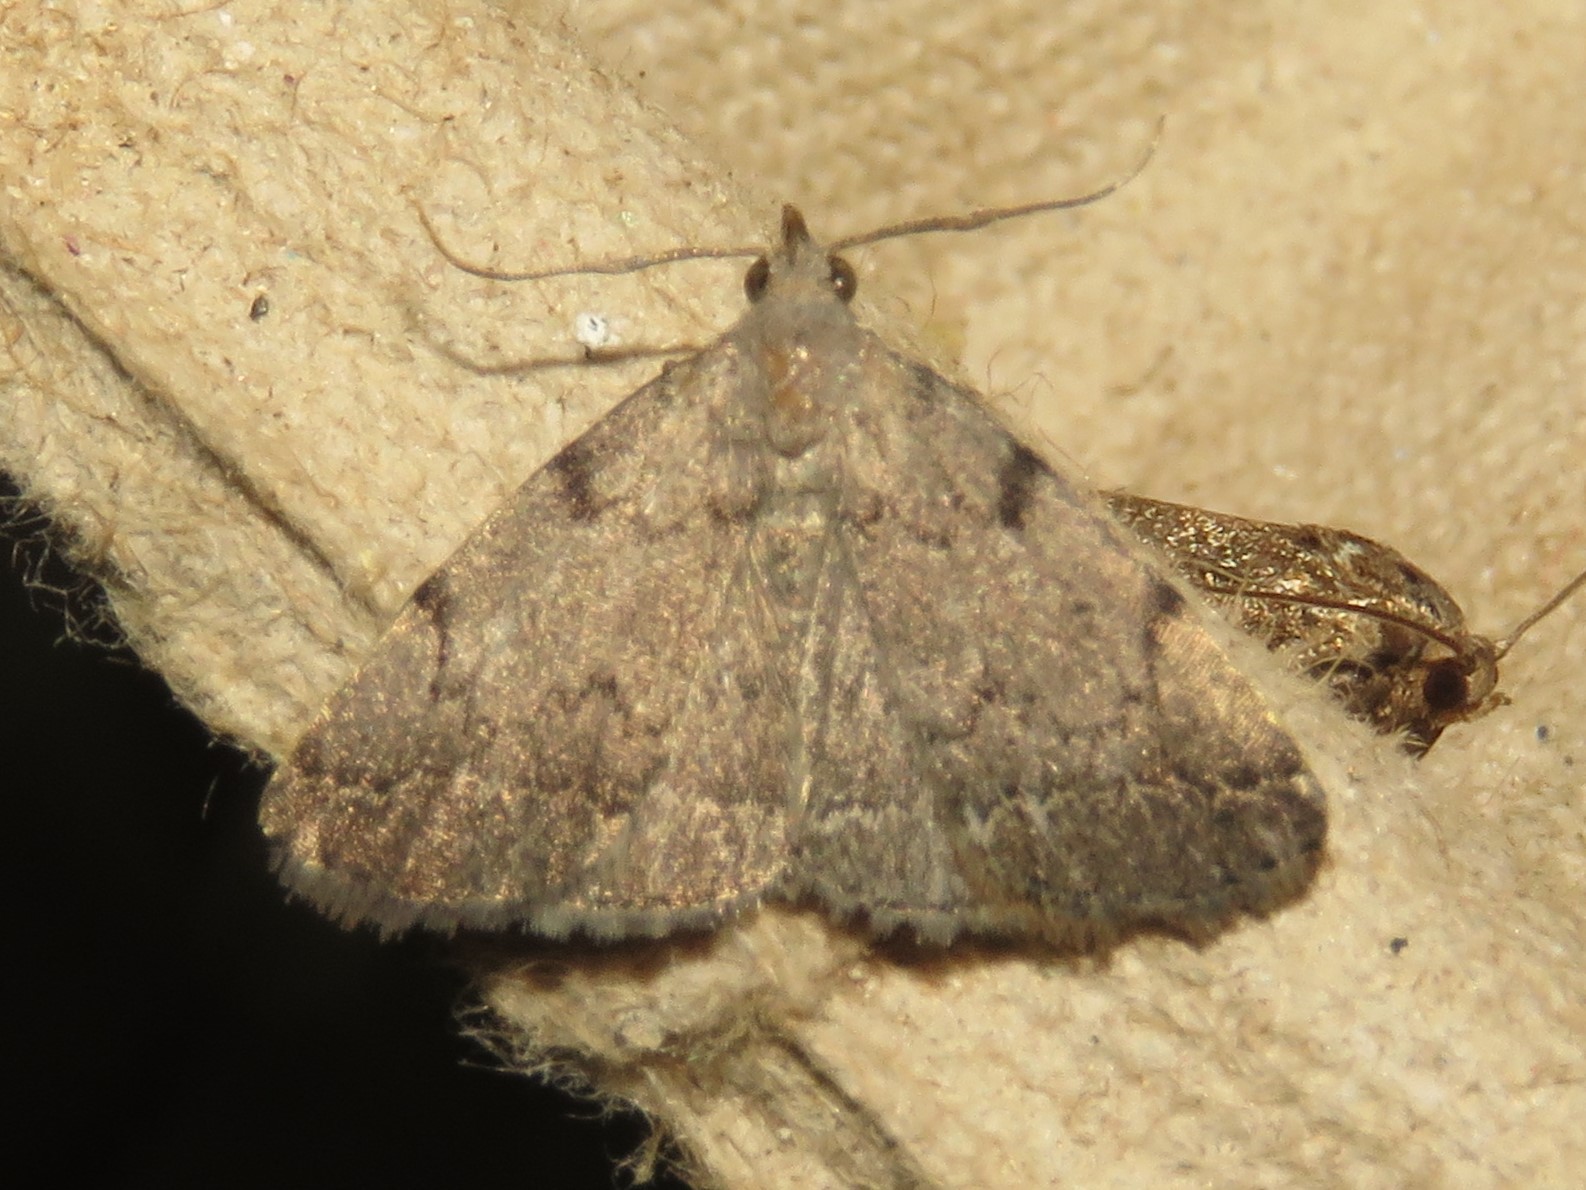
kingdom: Animalia
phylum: Arthropoda
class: Insecta
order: Lepidoptera
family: Erebidae
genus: Zanclognatha
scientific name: Zanclognatha theralis
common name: Flagged fan-foot
